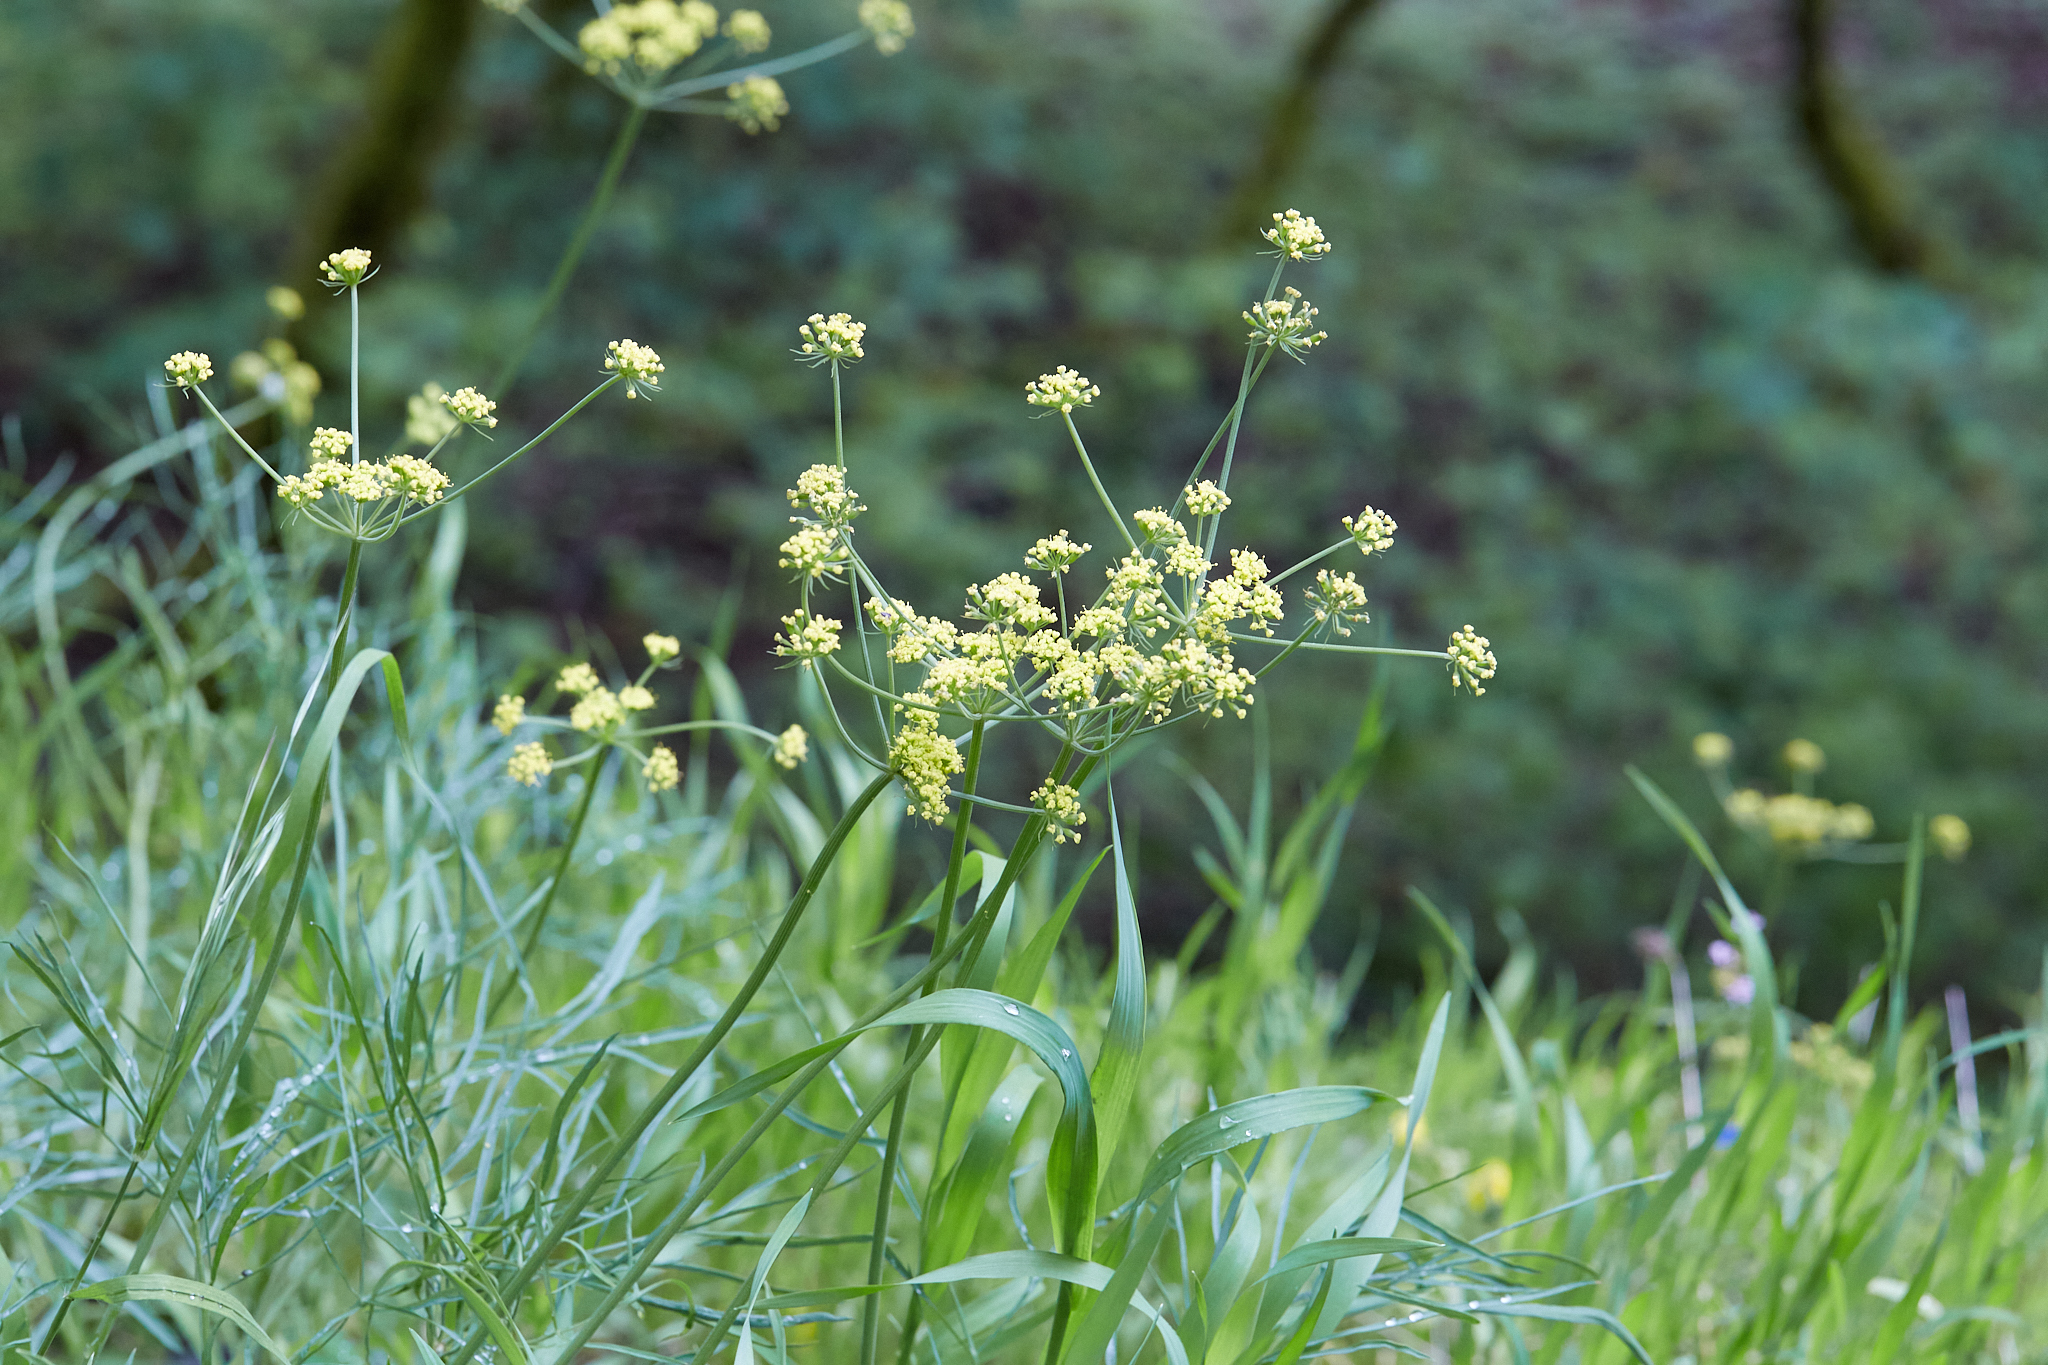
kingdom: Plantae
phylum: Tracheophyta
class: Magnoliopsida
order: Apiales
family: Apiaceae
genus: Lomatium
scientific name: Lomatium triternatum
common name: Ternate lomatium
